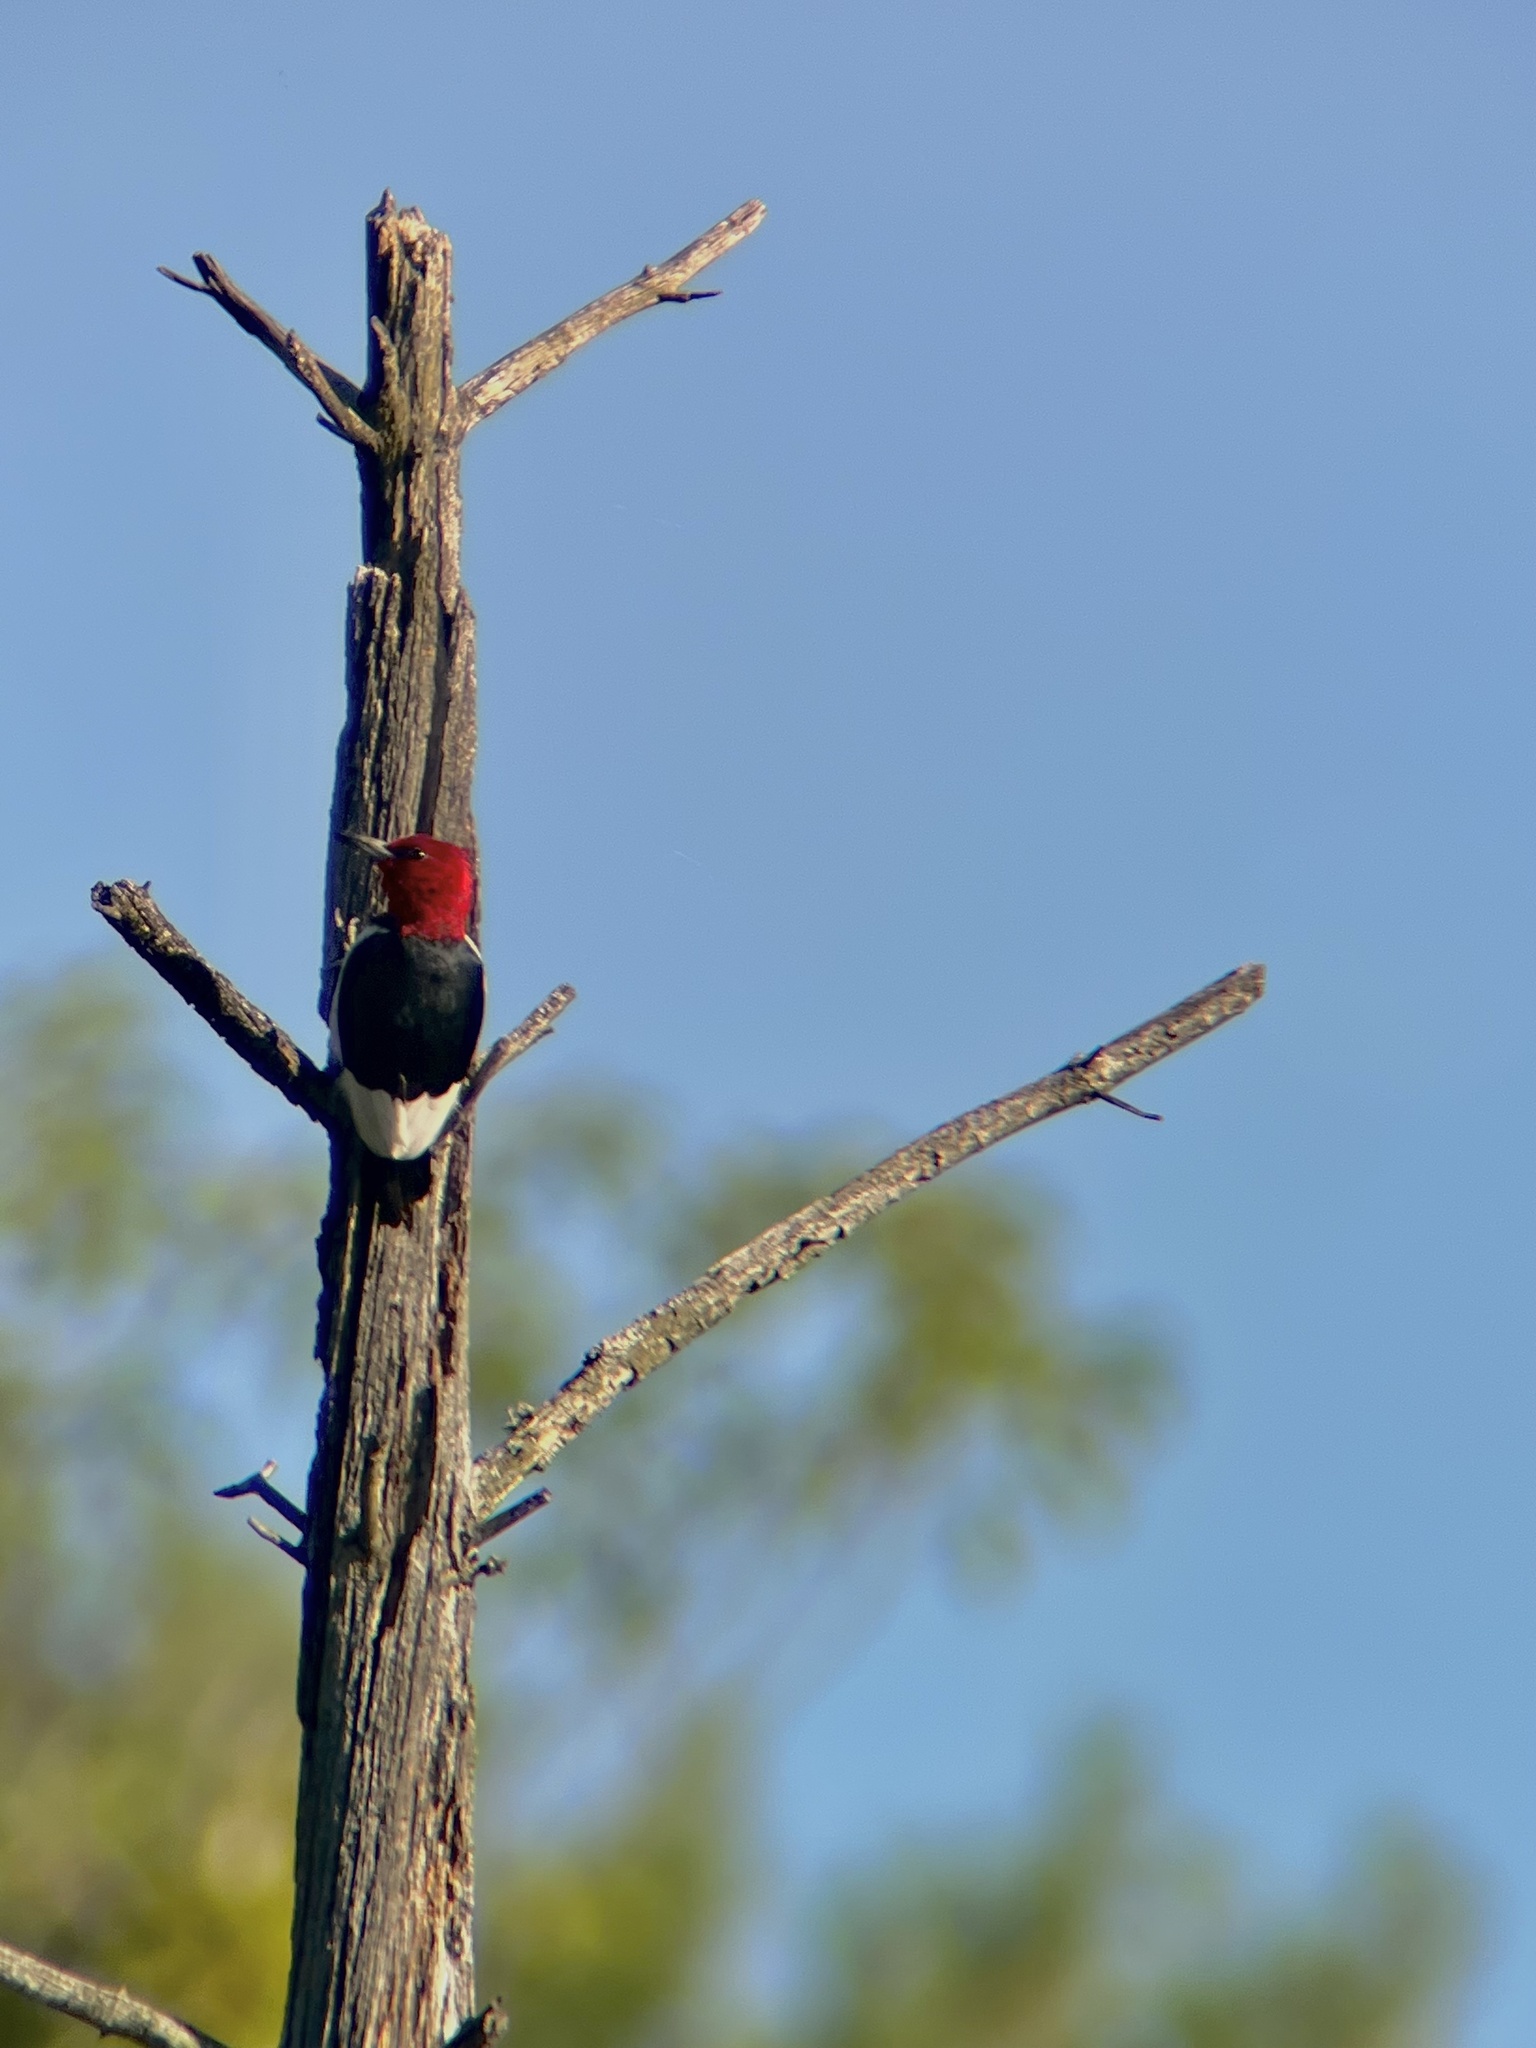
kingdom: Animalia
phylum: Chordata
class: Aves
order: Piciformes
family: Picidae
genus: Melanerpes
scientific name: Melanerpes erythrocephalus
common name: Red-headed woodpecker
